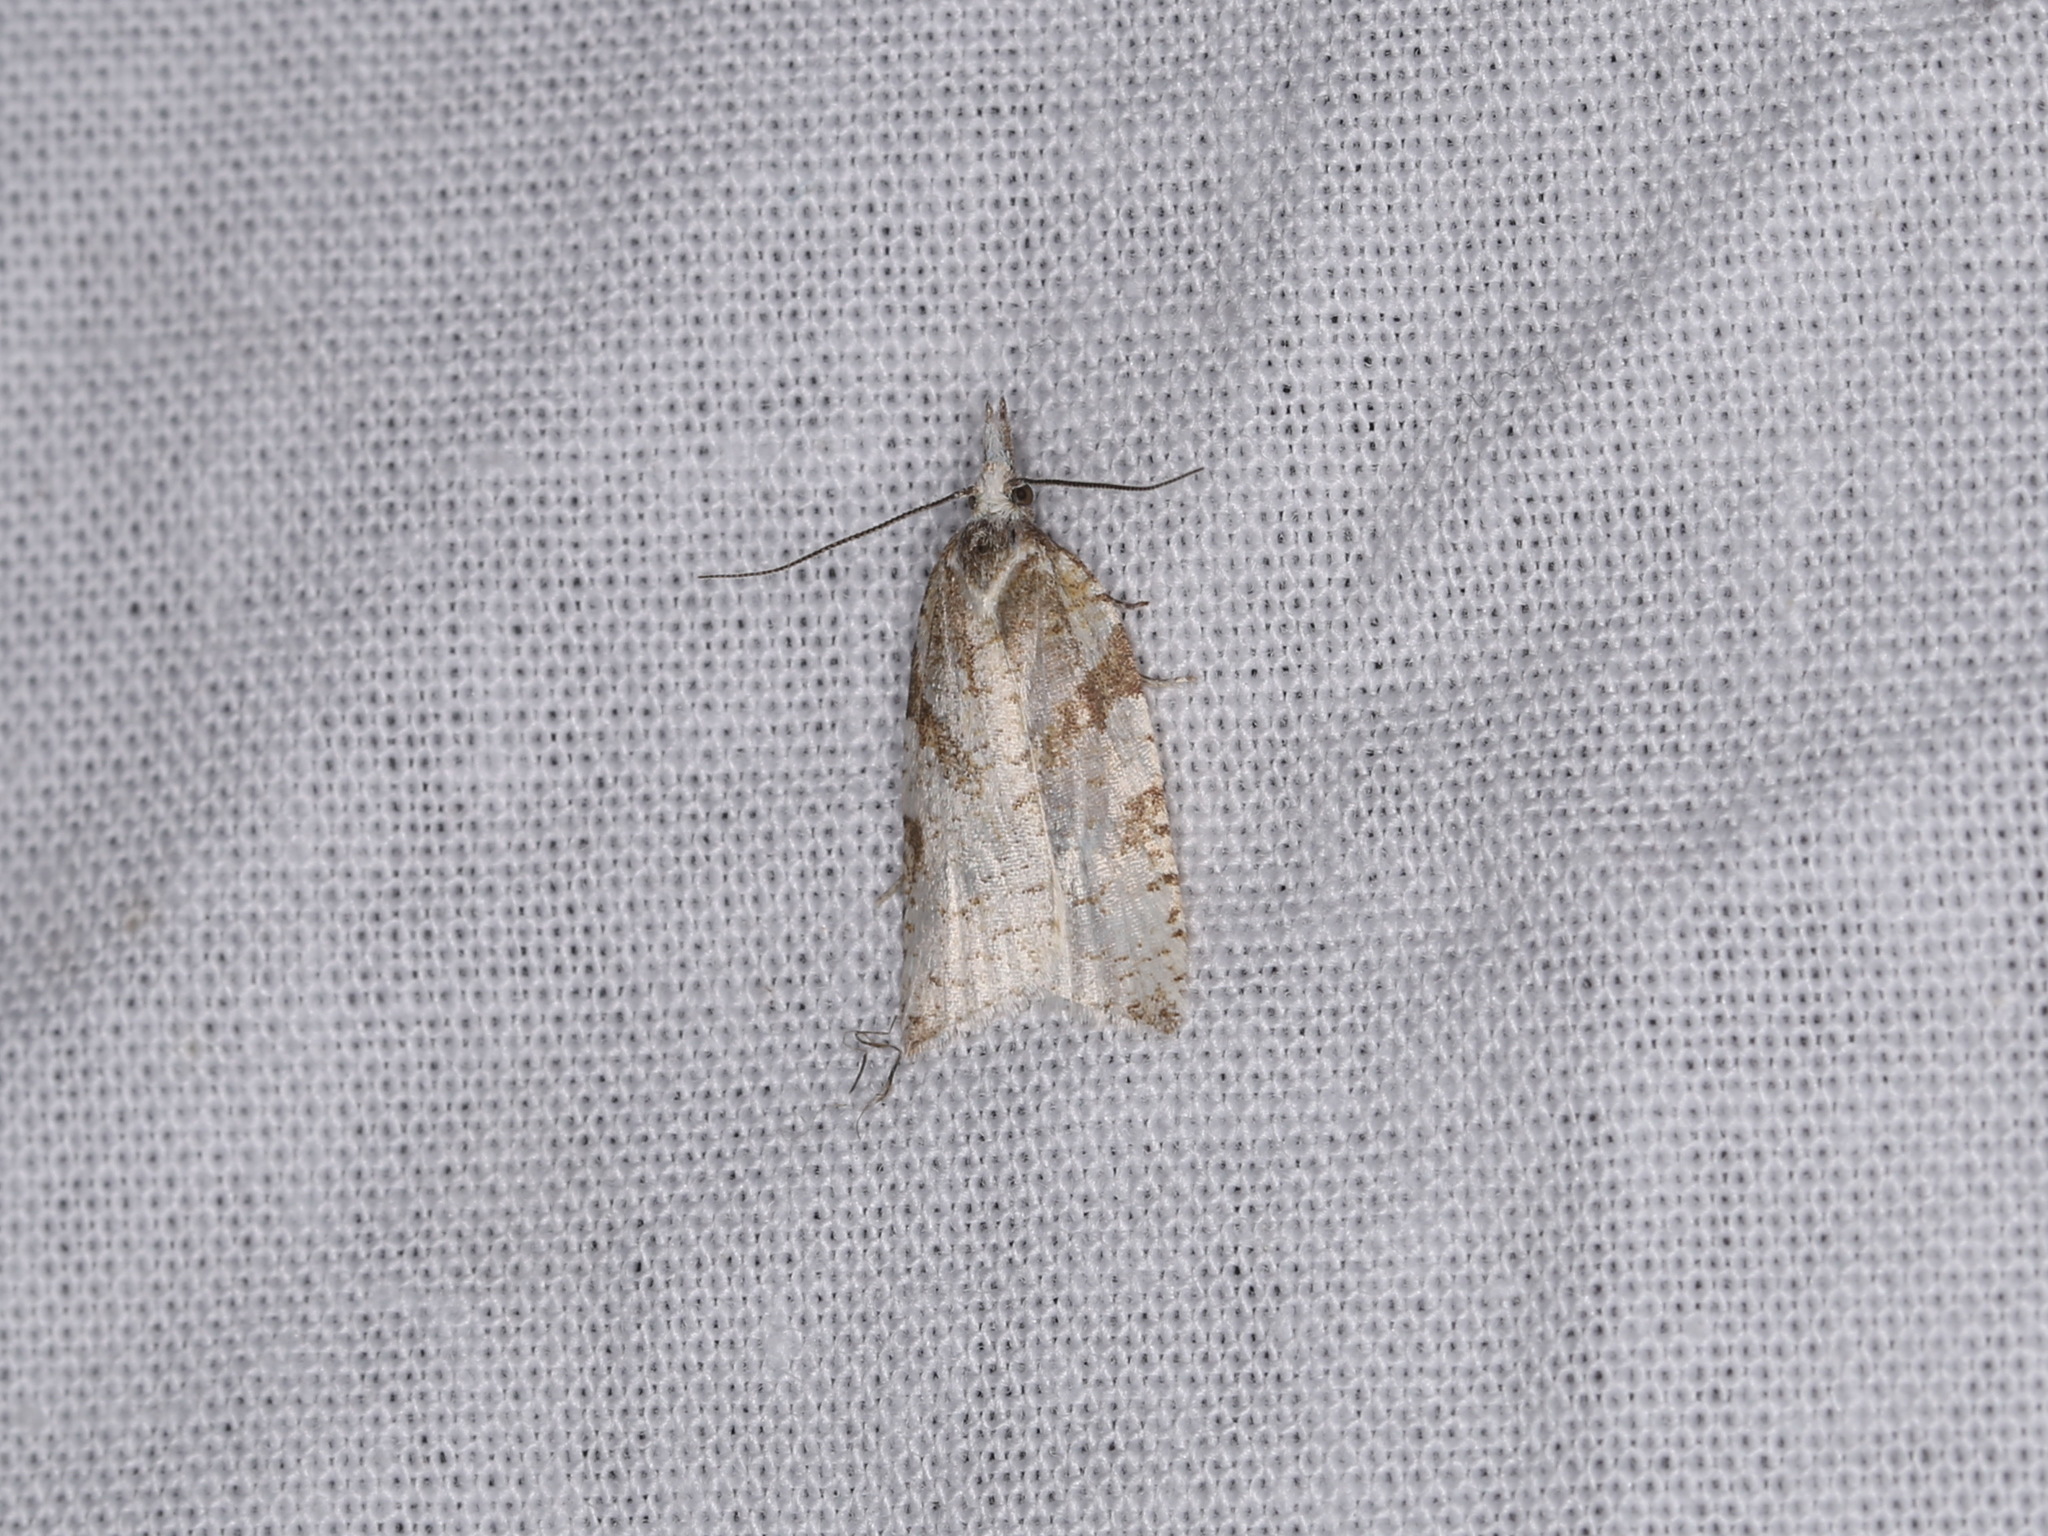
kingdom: Animalia
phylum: Arthropoda
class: Insecta
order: Lepidoptera
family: Tortricidae
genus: Sparganothis
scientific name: Sparganothis senecionana
